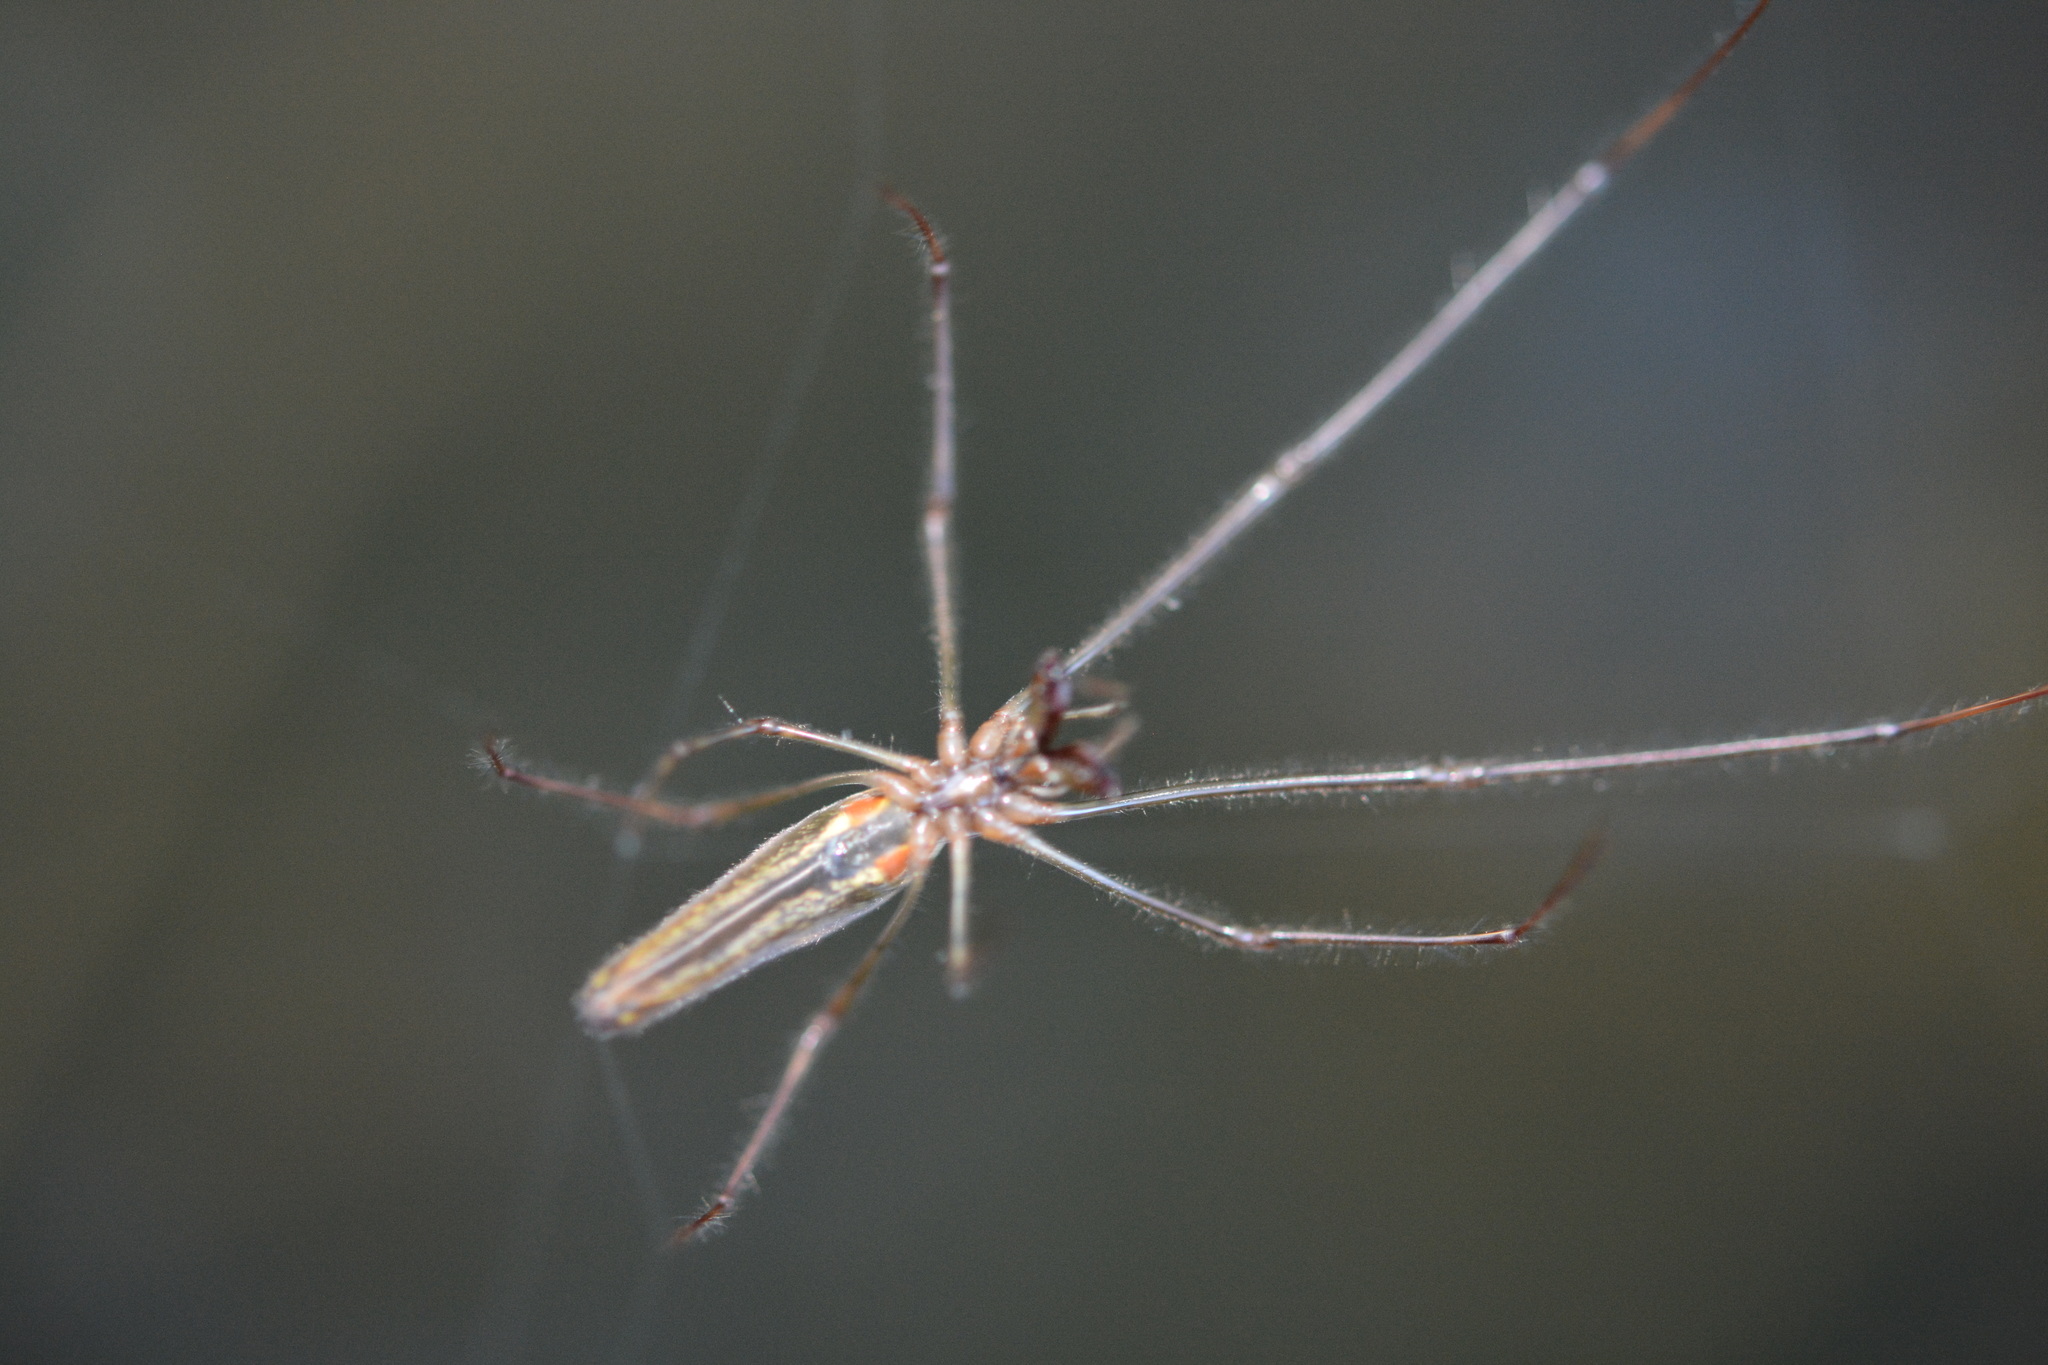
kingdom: Animalia
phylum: Arthropoda
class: Arachnida
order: Araneae
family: Tetragnathidae
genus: Tetragnatha
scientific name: Tetragnatha
